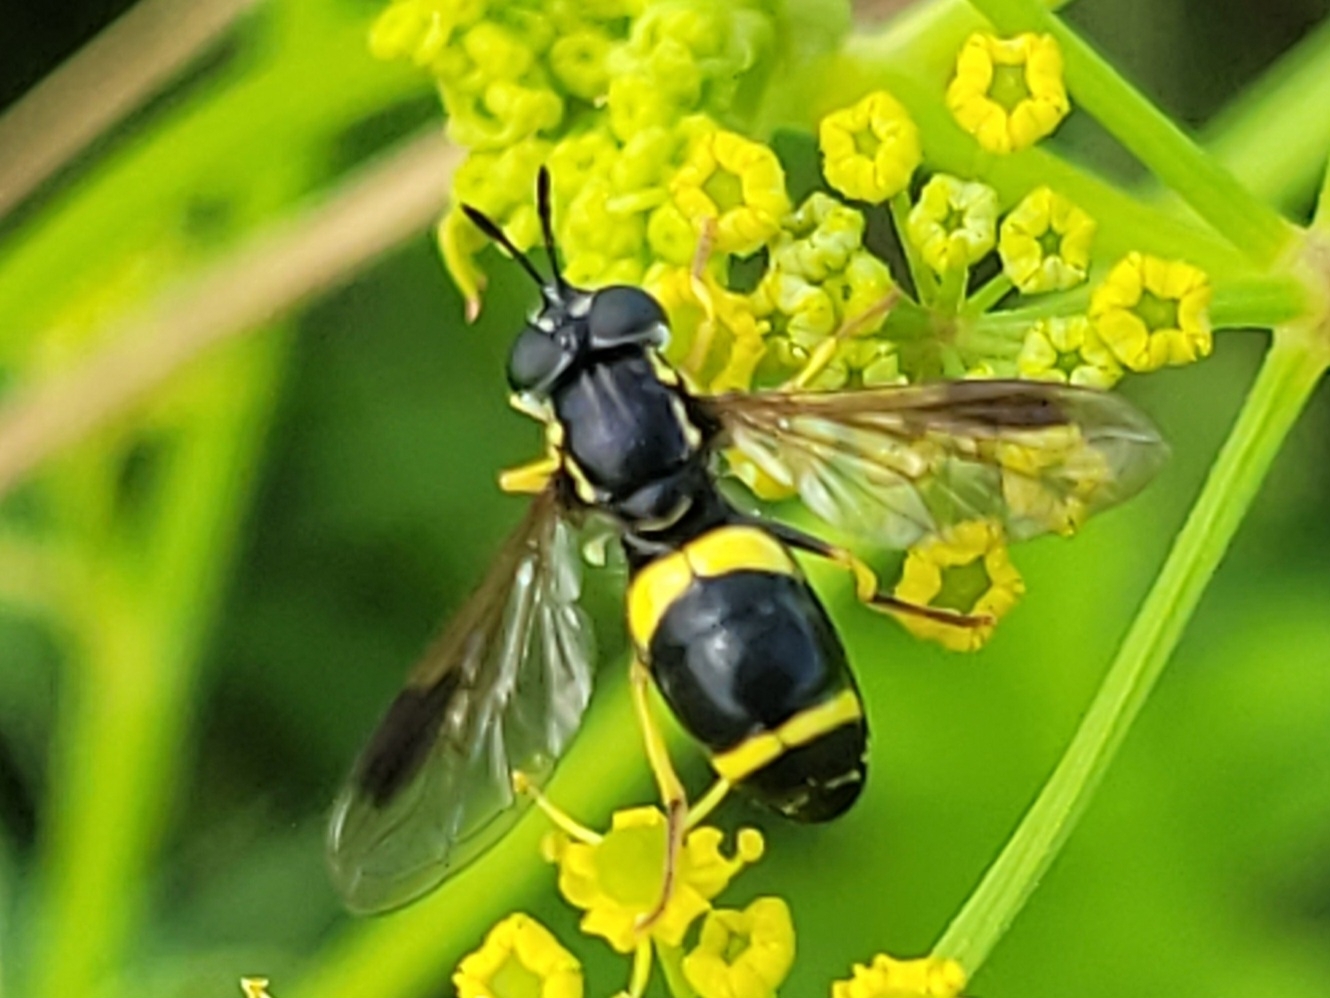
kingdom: Animalia
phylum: Arthropoda
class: Insecta
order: Diptera
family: Syrphidae
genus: Chrysotoxum
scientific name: Chrysotoxum bicincta
